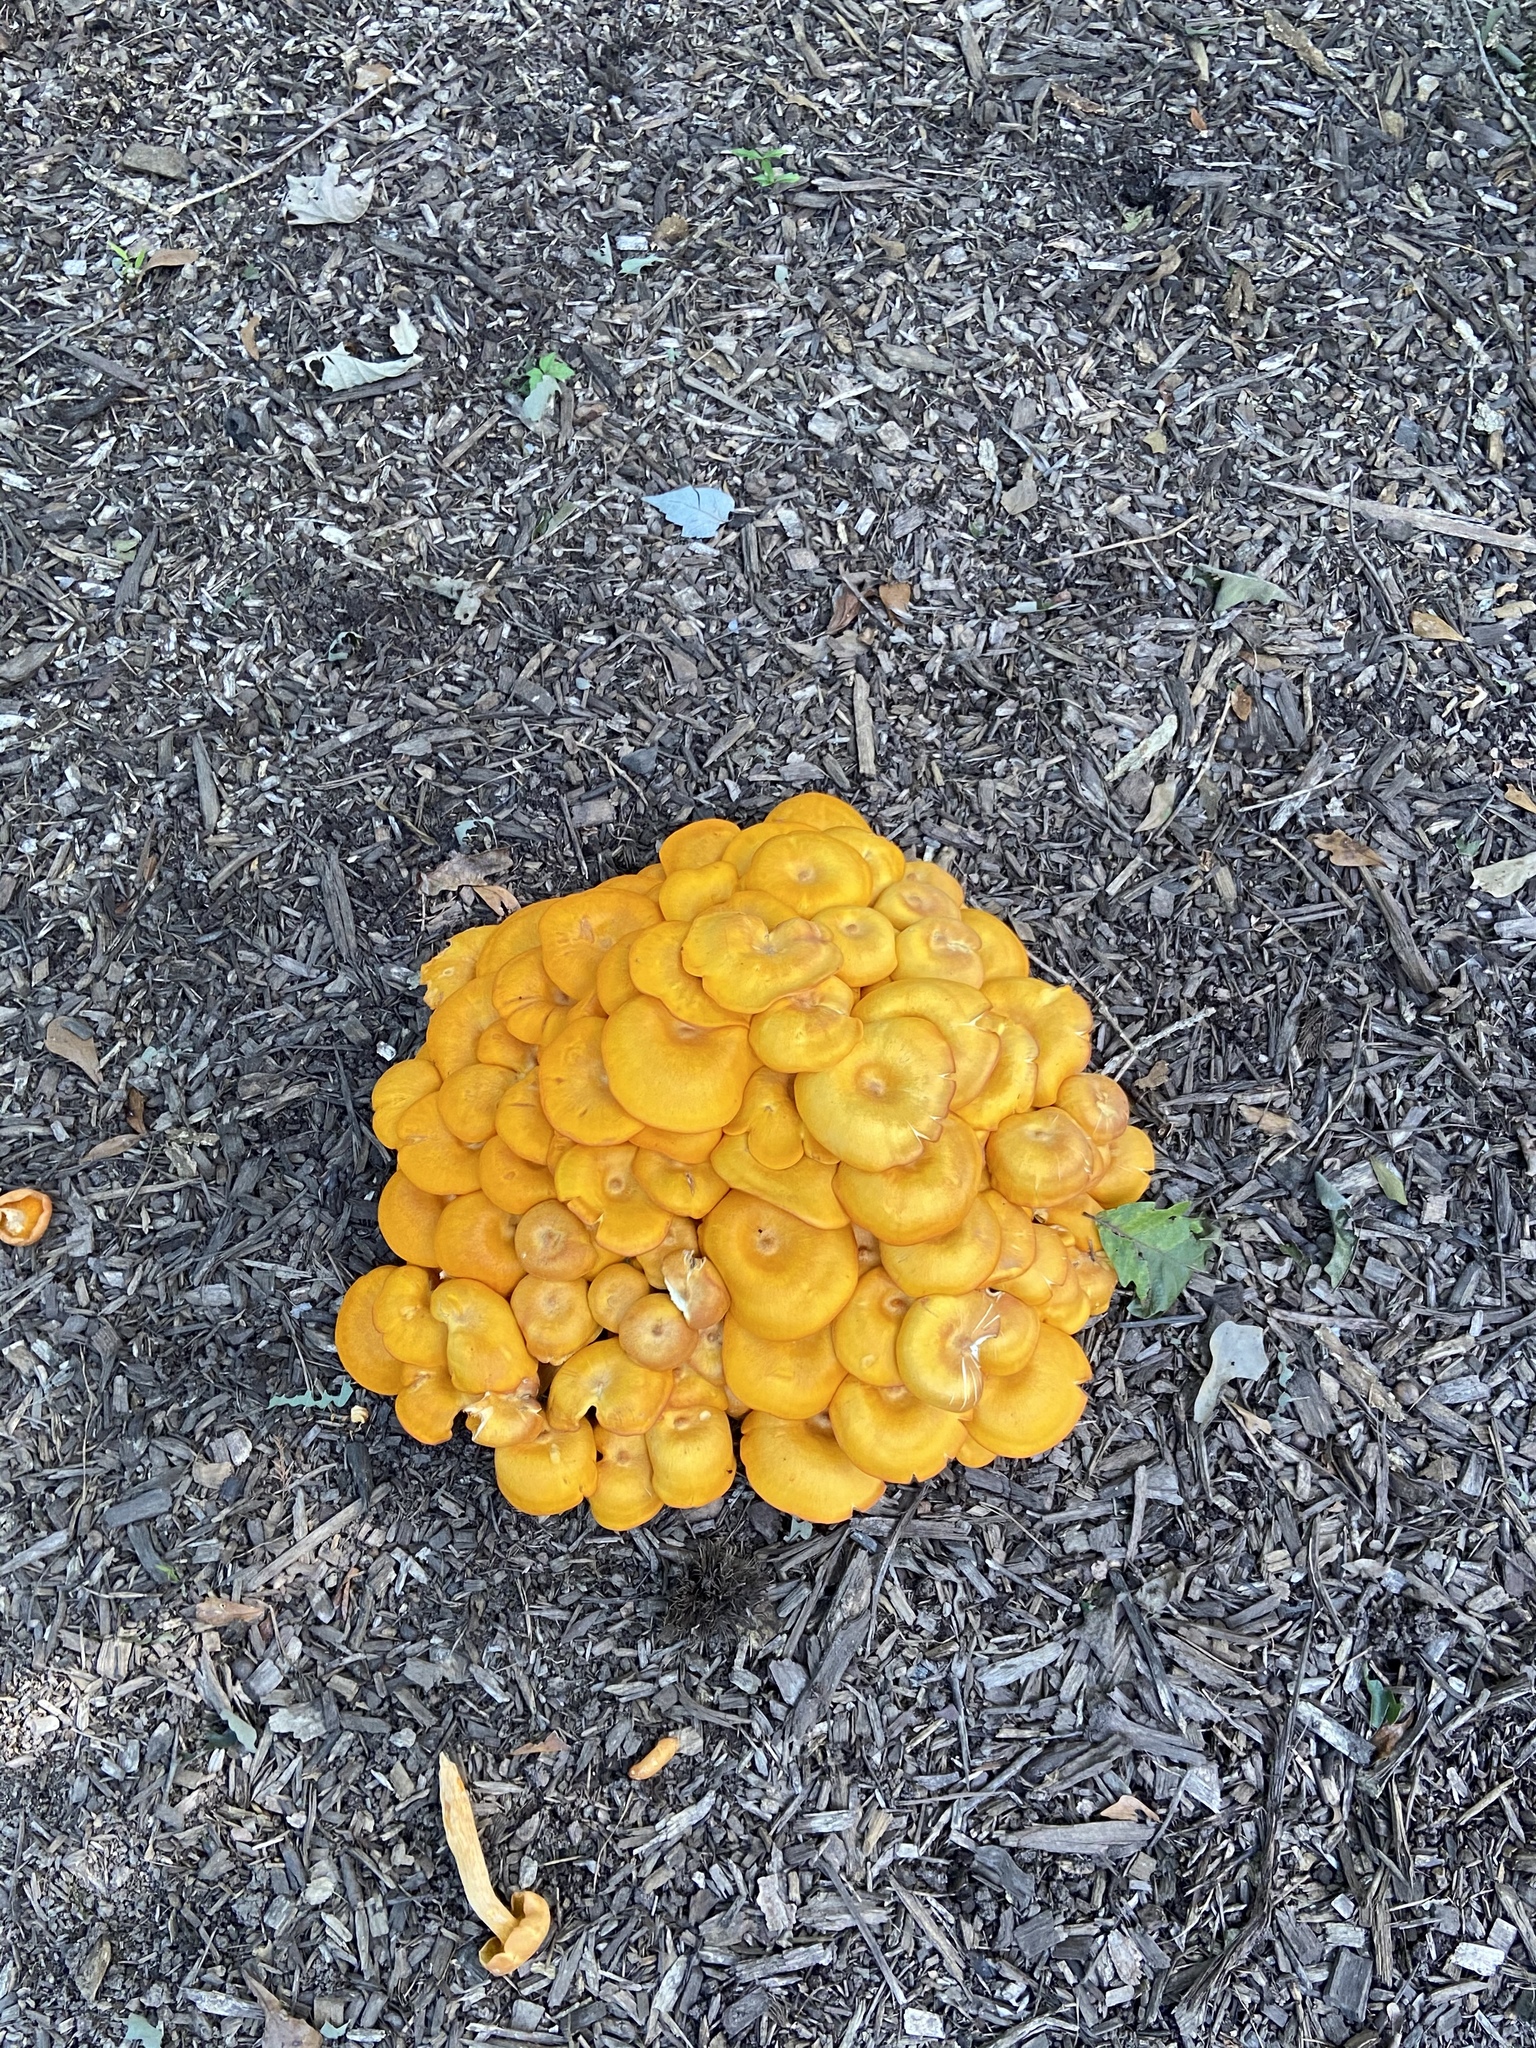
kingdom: Fungi
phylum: Basidiomycota
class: Agaricomycetes
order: Agaricales
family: Omphalotaceae
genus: Omphalotus
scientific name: Omphalotus illudens
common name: Jack o lantern
